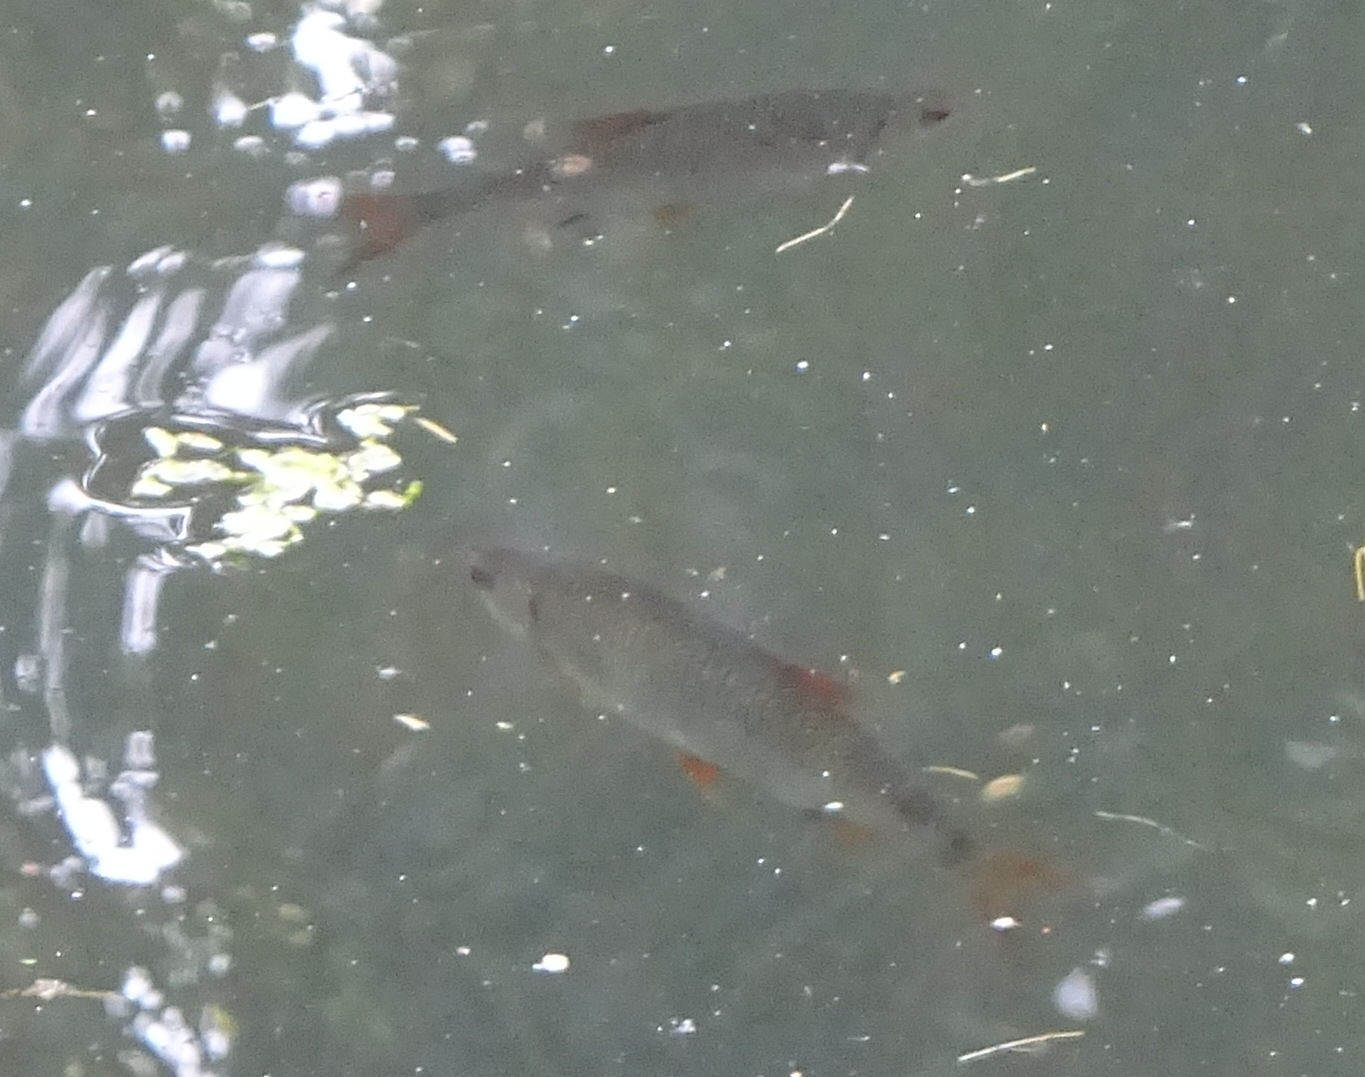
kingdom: Animalia
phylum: Chordata
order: Cypriniformes
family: Cyprinidae
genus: Scardinius
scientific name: Scardinius erythrophthalmus
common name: Rudd
